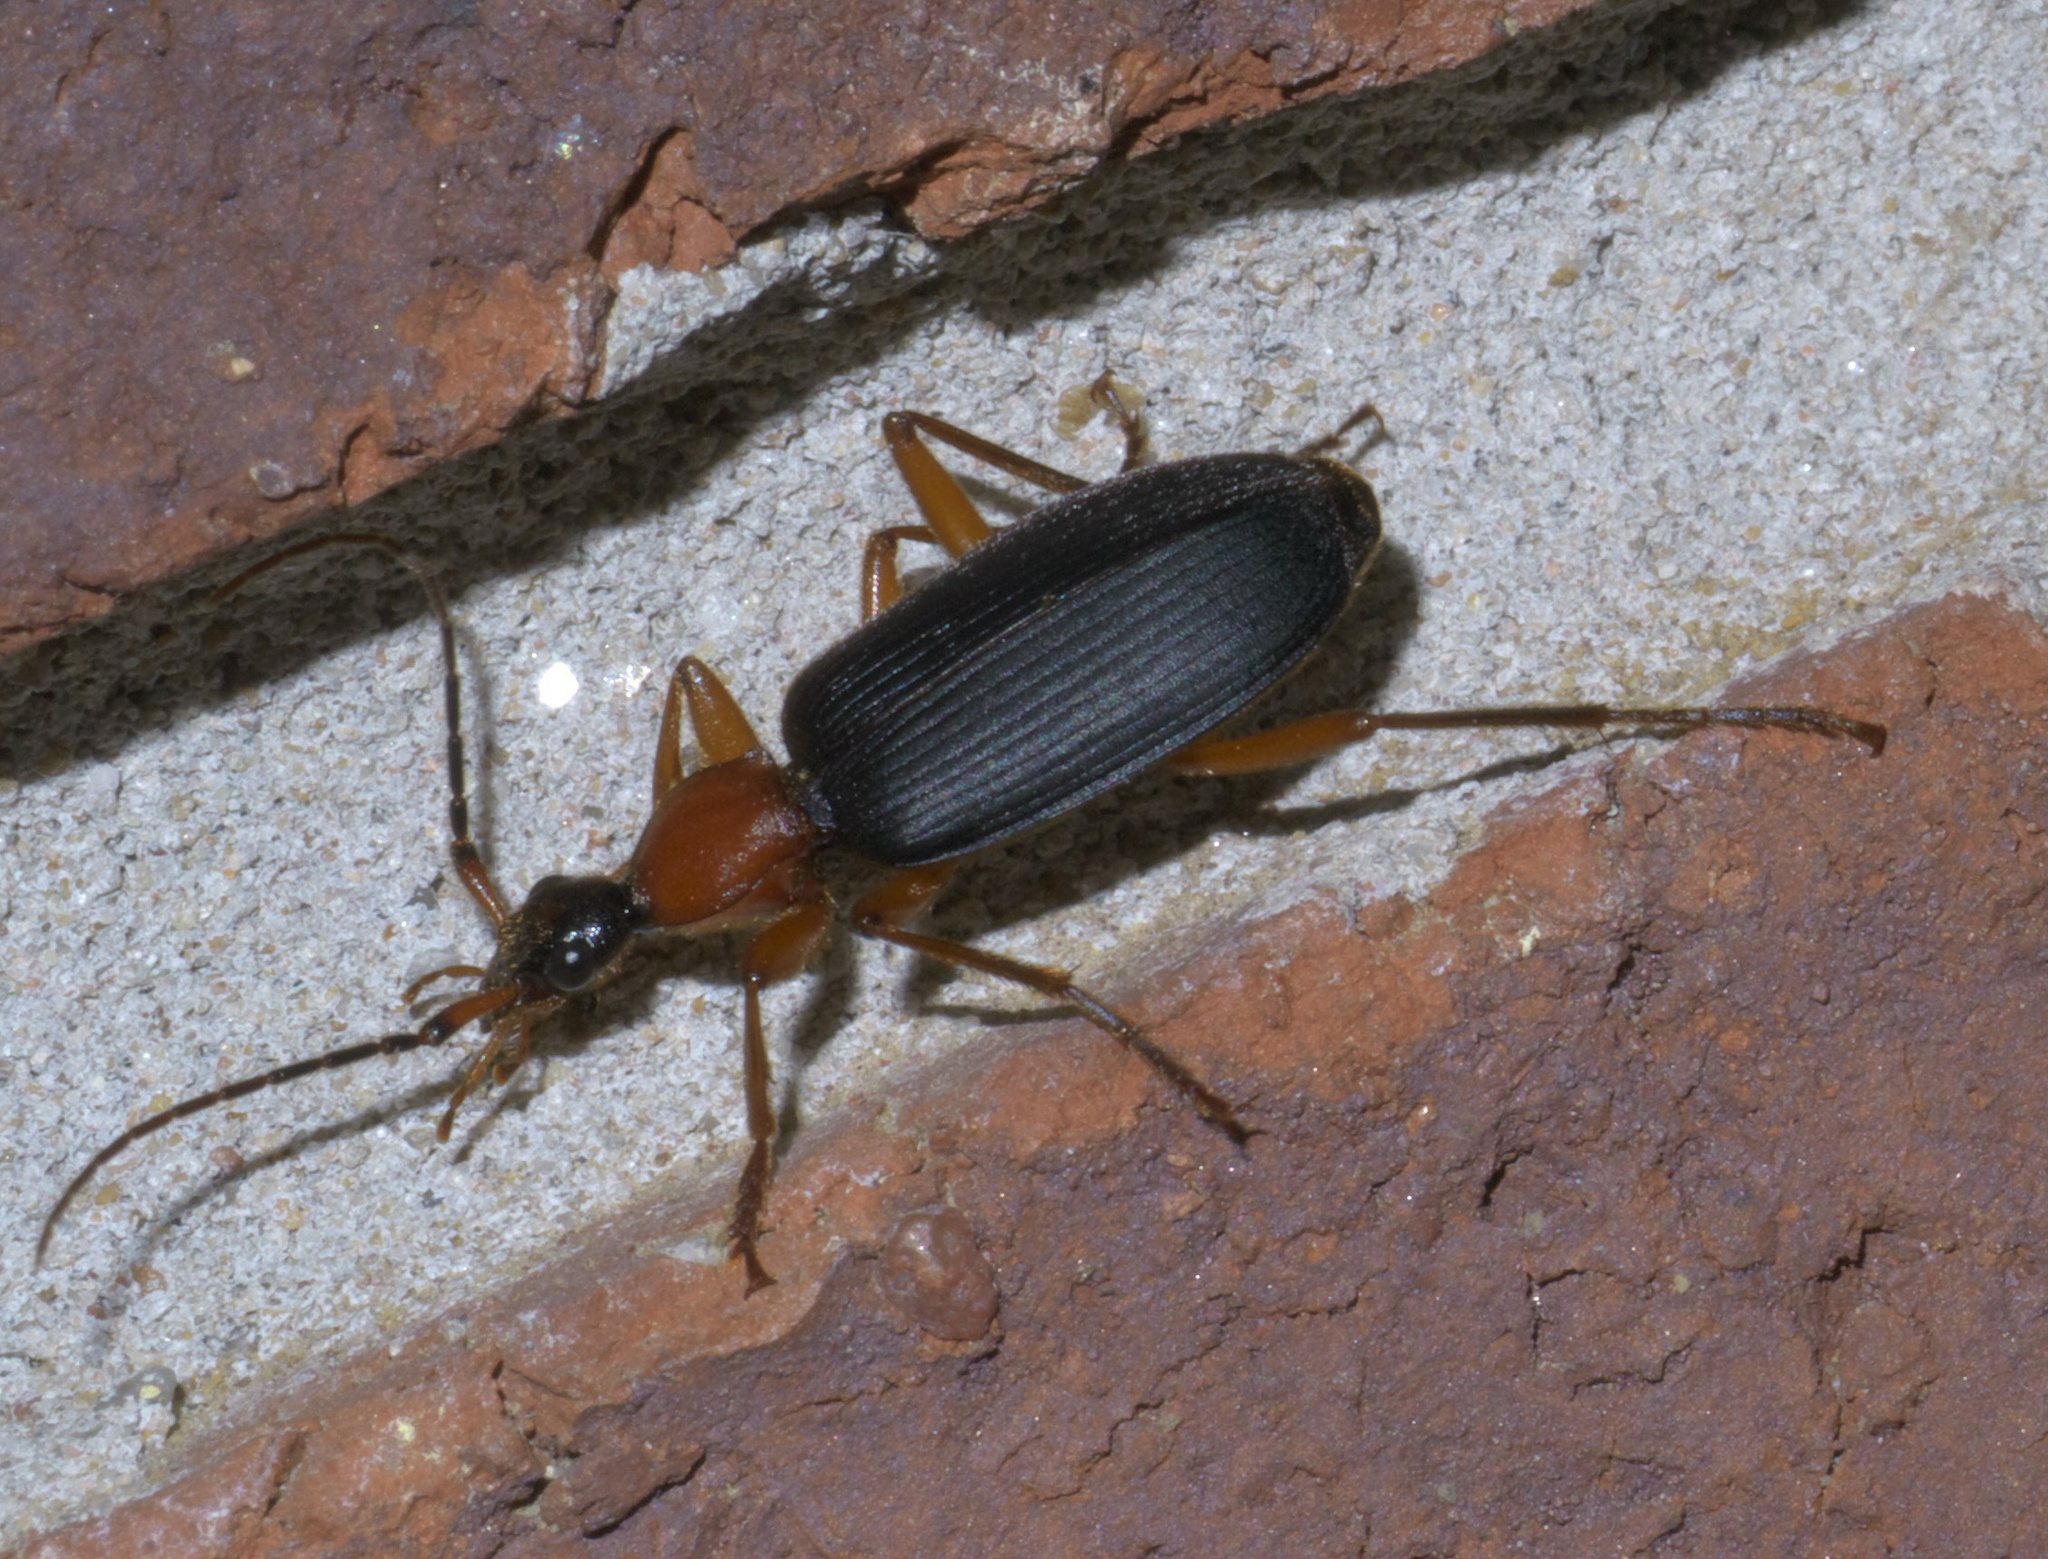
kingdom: Animalia
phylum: Arthropoda
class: Insecta
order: Coleoptera
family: Carabidae
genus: Galerita
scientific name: Galerita bicolor
